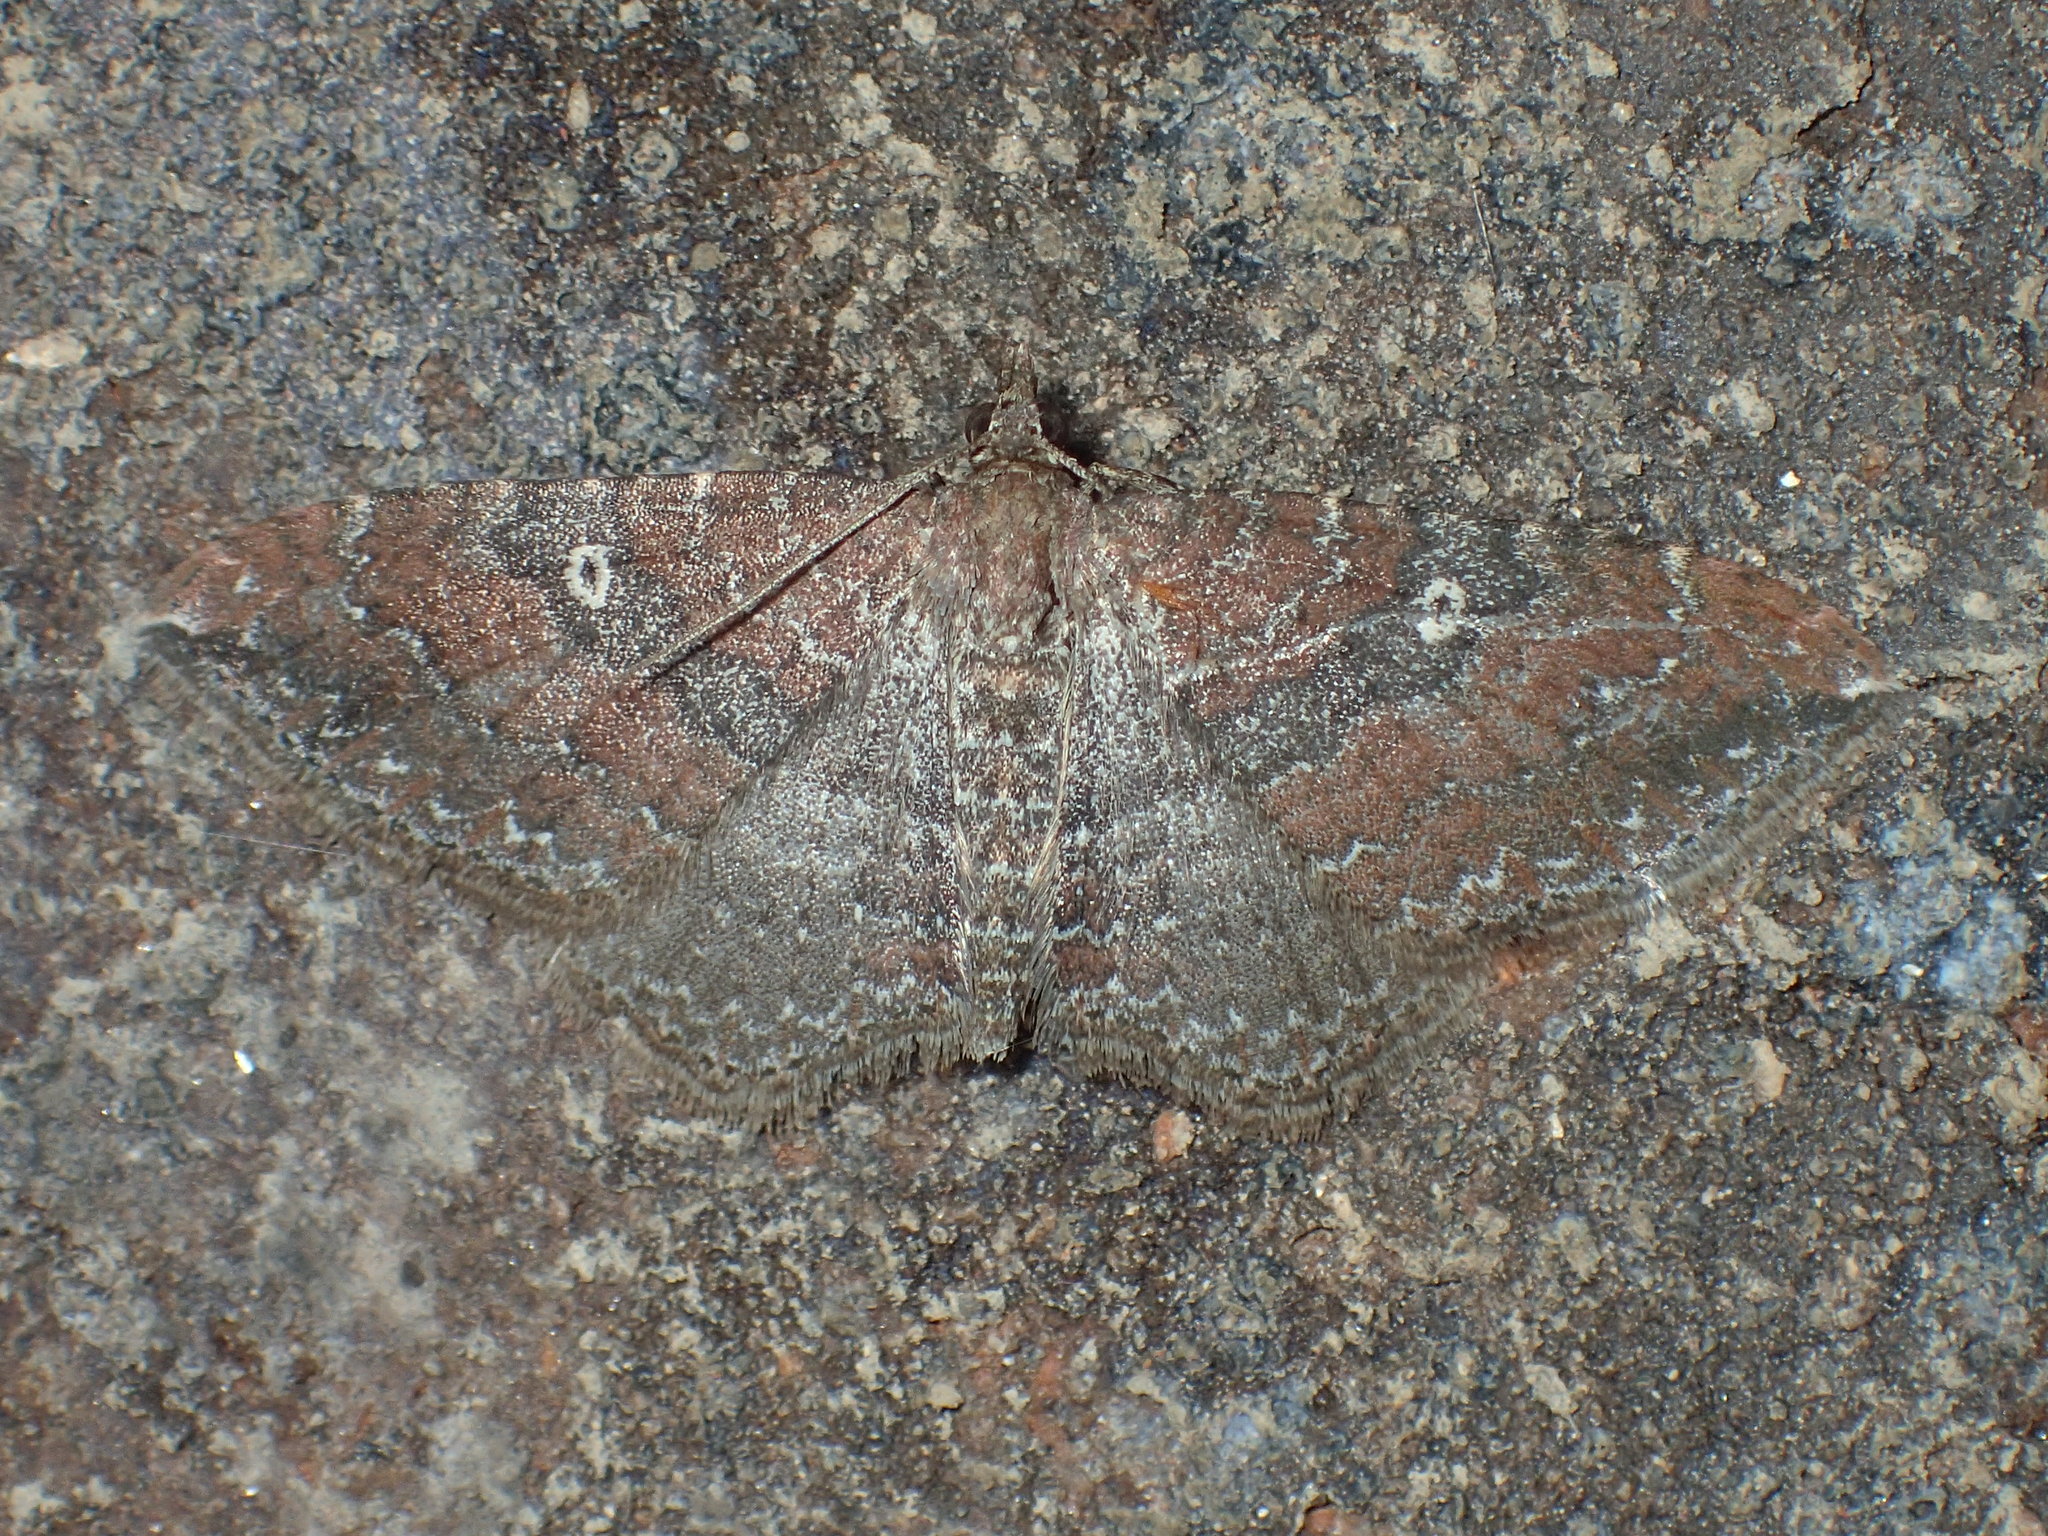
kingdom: Animalia
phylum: Arthropoda
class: Insecta
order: Lepidoptera
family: Geometridae
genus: Orthonama
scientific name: Orthonama obstipata
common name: The gem
